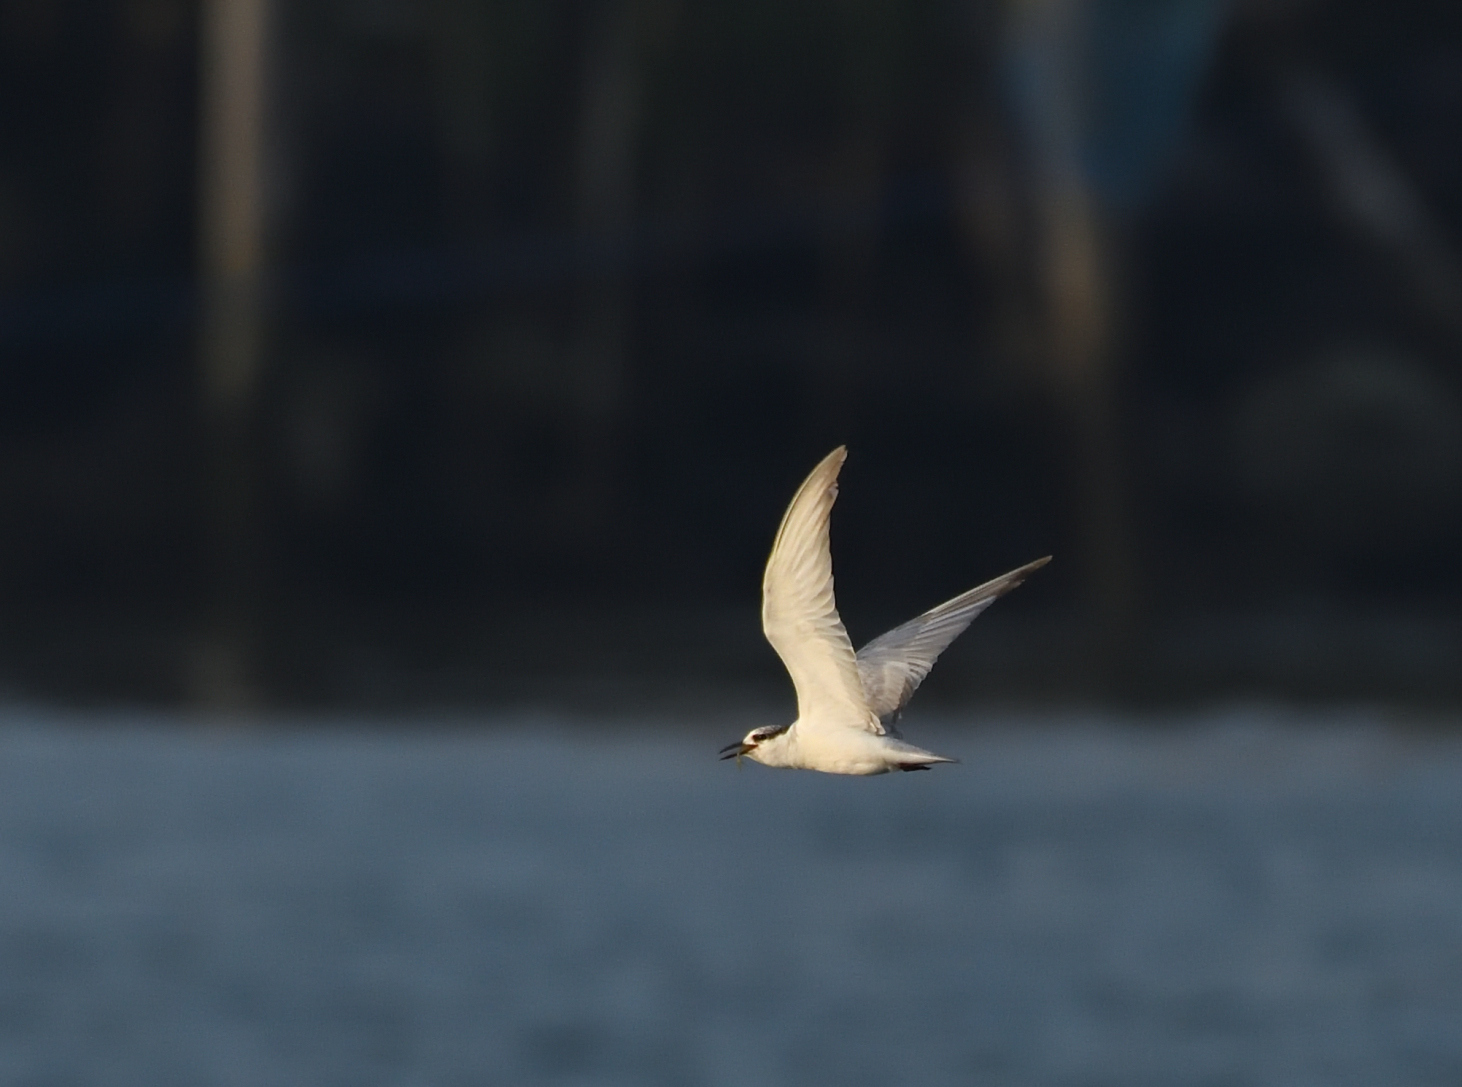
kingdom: Animalia
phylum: Chordata
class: Aves
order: Charadriiformes
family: Laridae
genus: Chlidonias
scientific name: Chlidonias hybrida
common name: Whiskered tern
